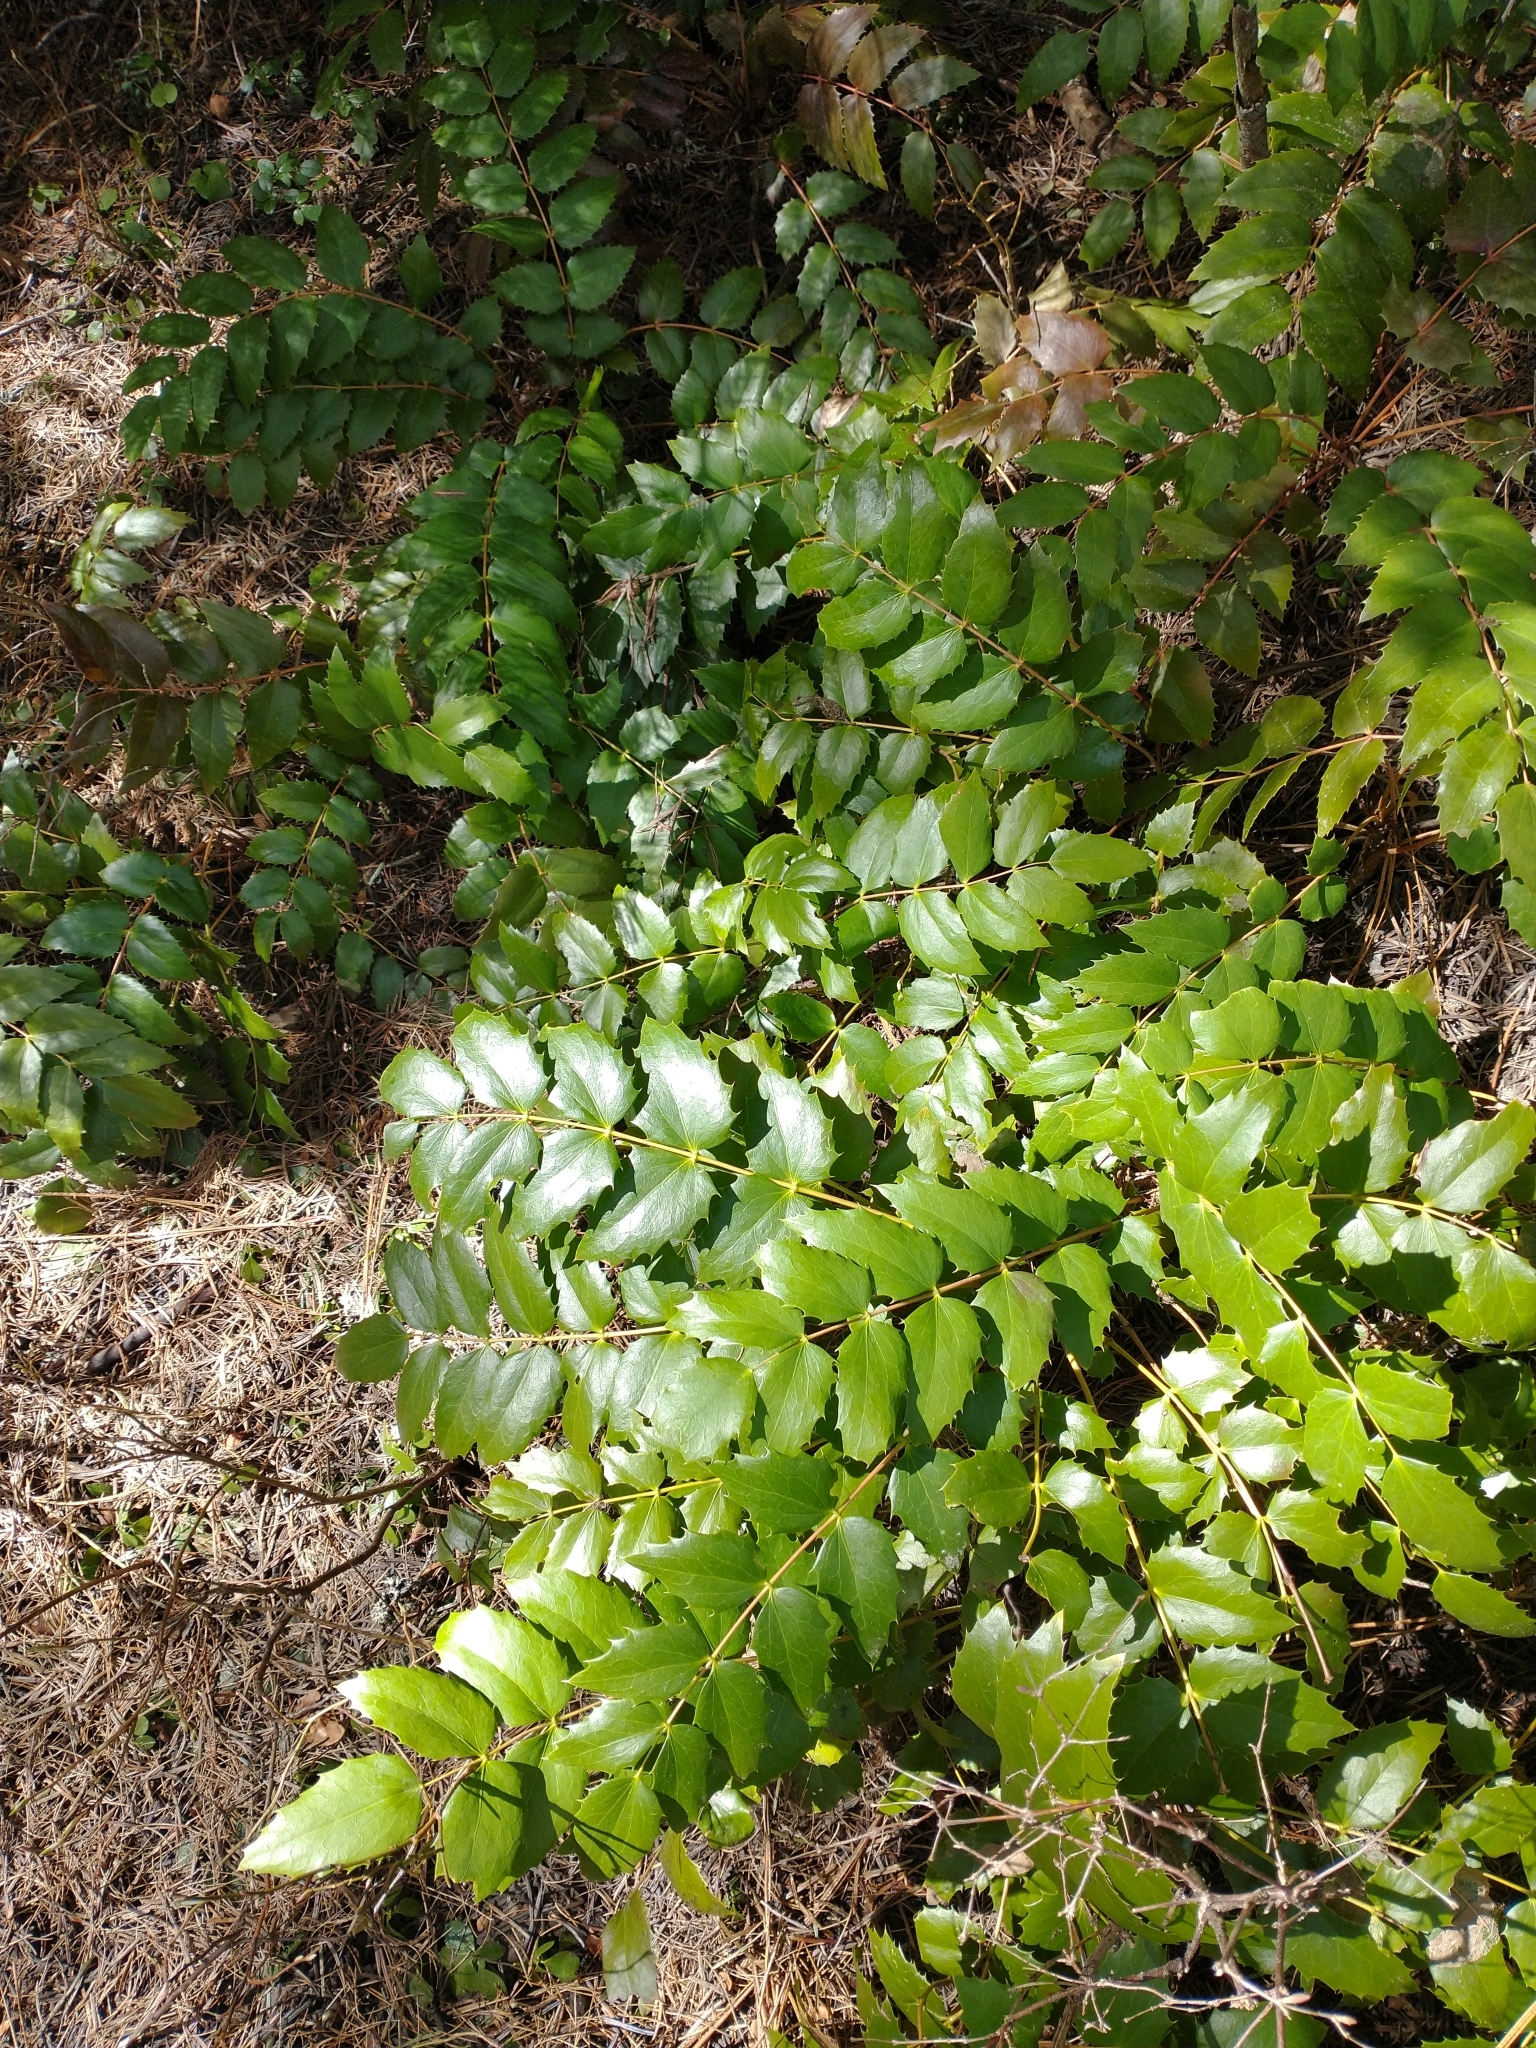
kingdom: Plantae
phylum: Tracheophyta
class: Magnoliopsida
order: Ranunculales
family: Berberidaceae
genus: Mahonia
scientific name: Mahonia nervosa
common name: Cascade oregon-grape
